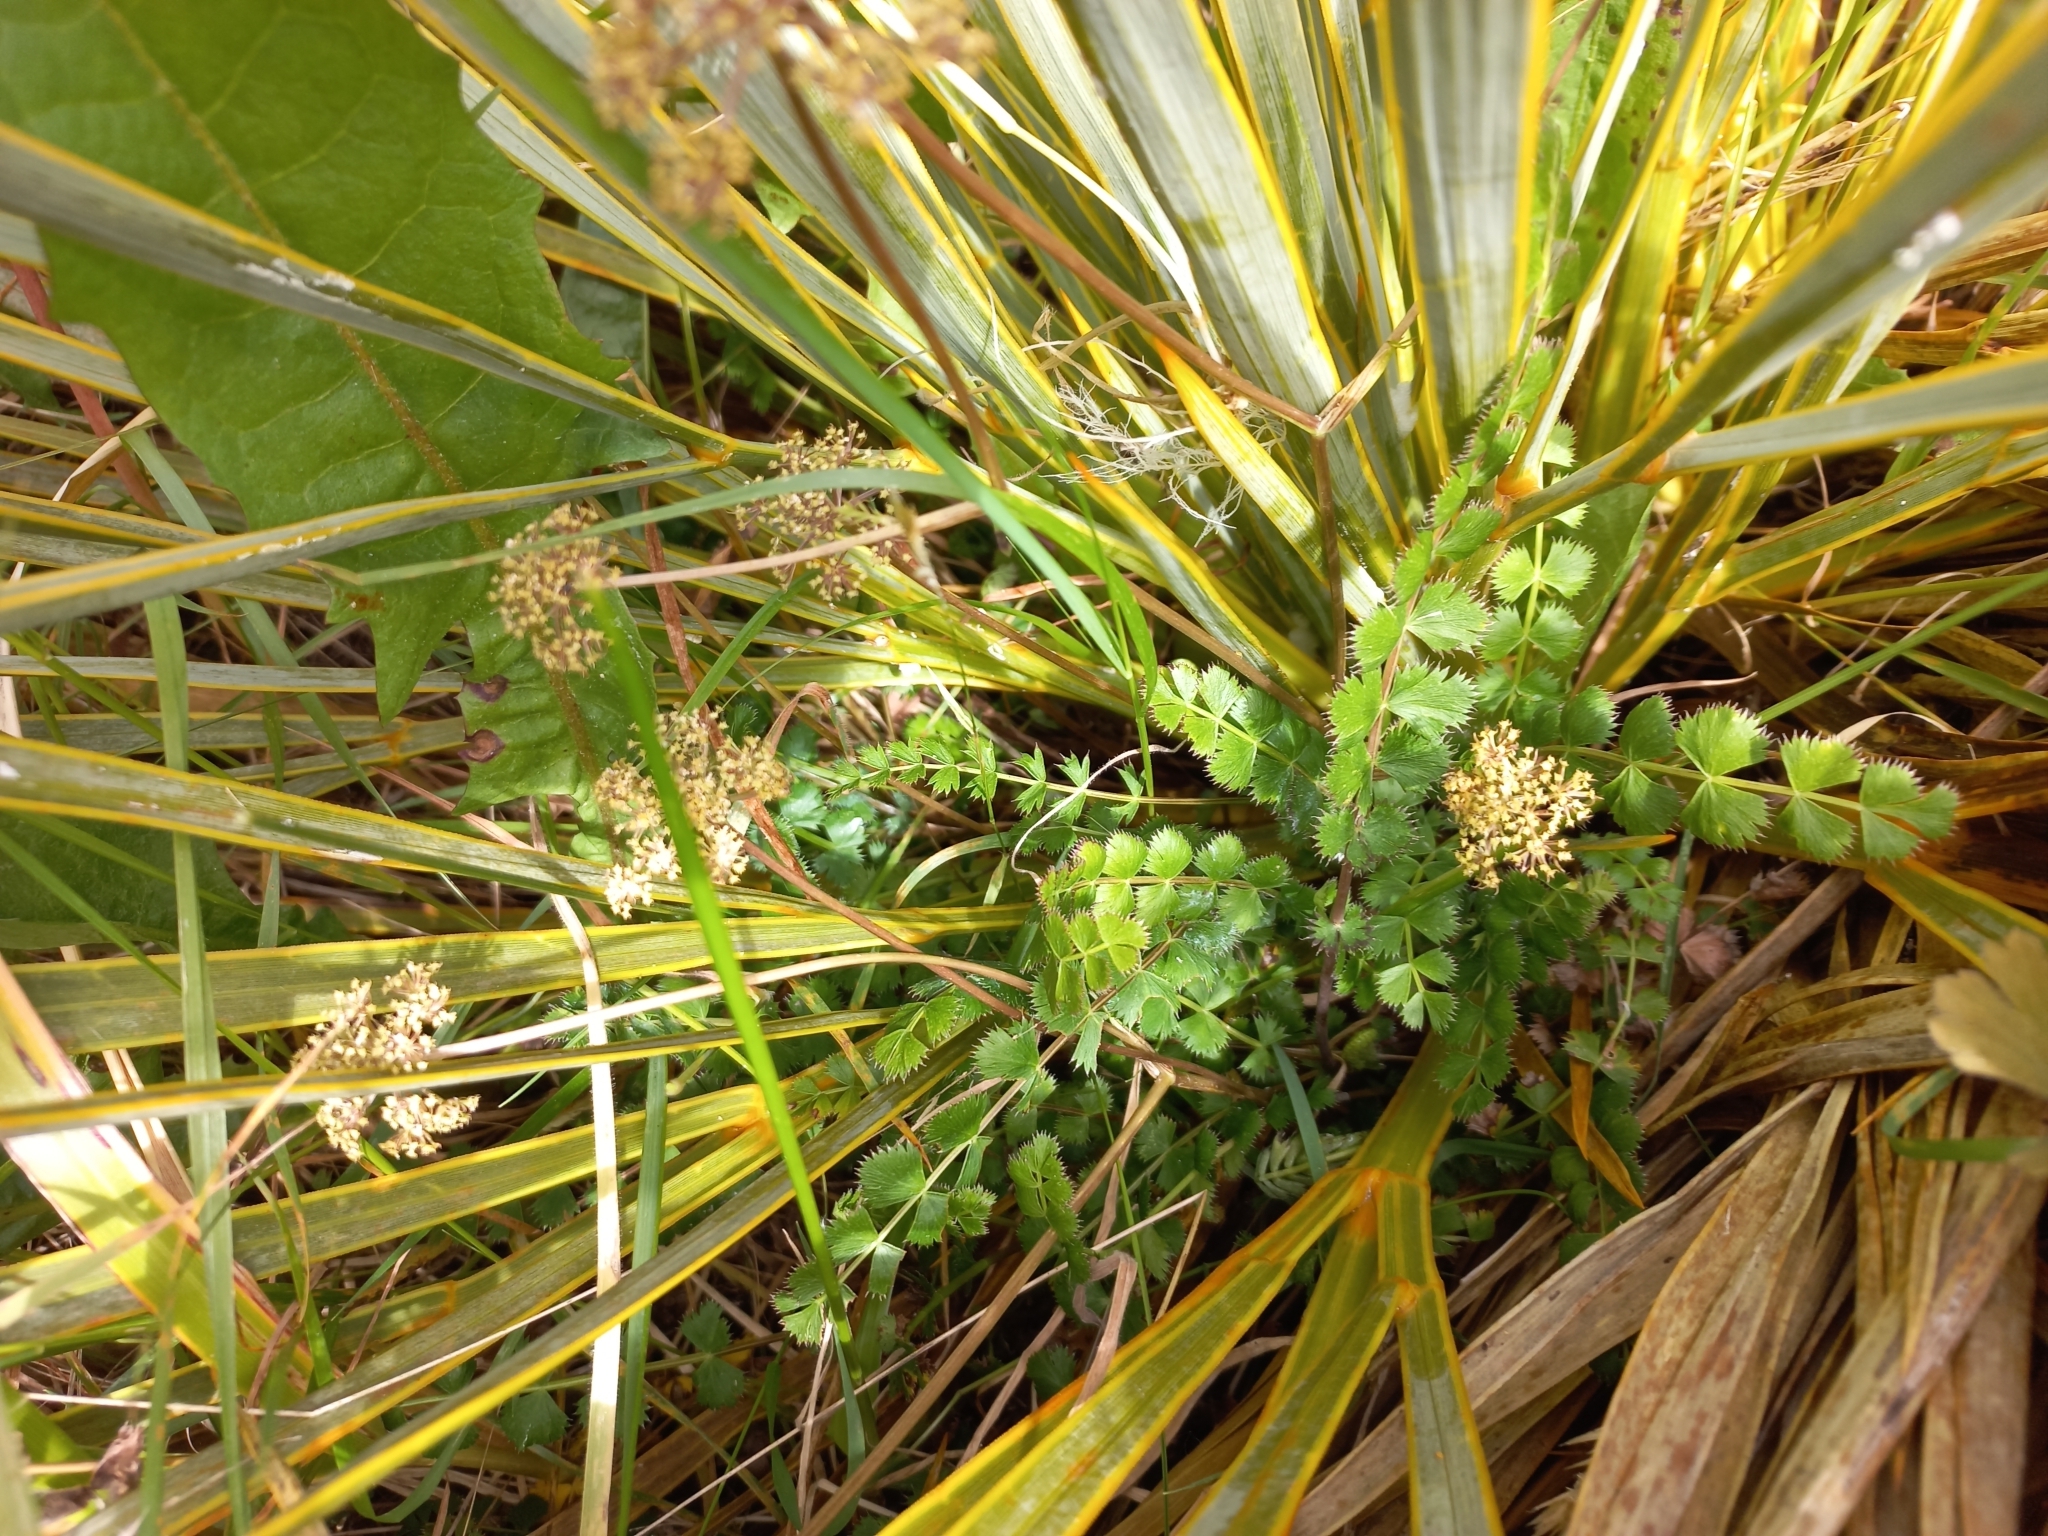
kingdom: Plantae
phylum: Tracheophyta
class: Magnoliopsida
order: Apiales
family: Apiaceae
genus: Anisotome
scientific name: Anisotome aromatica
